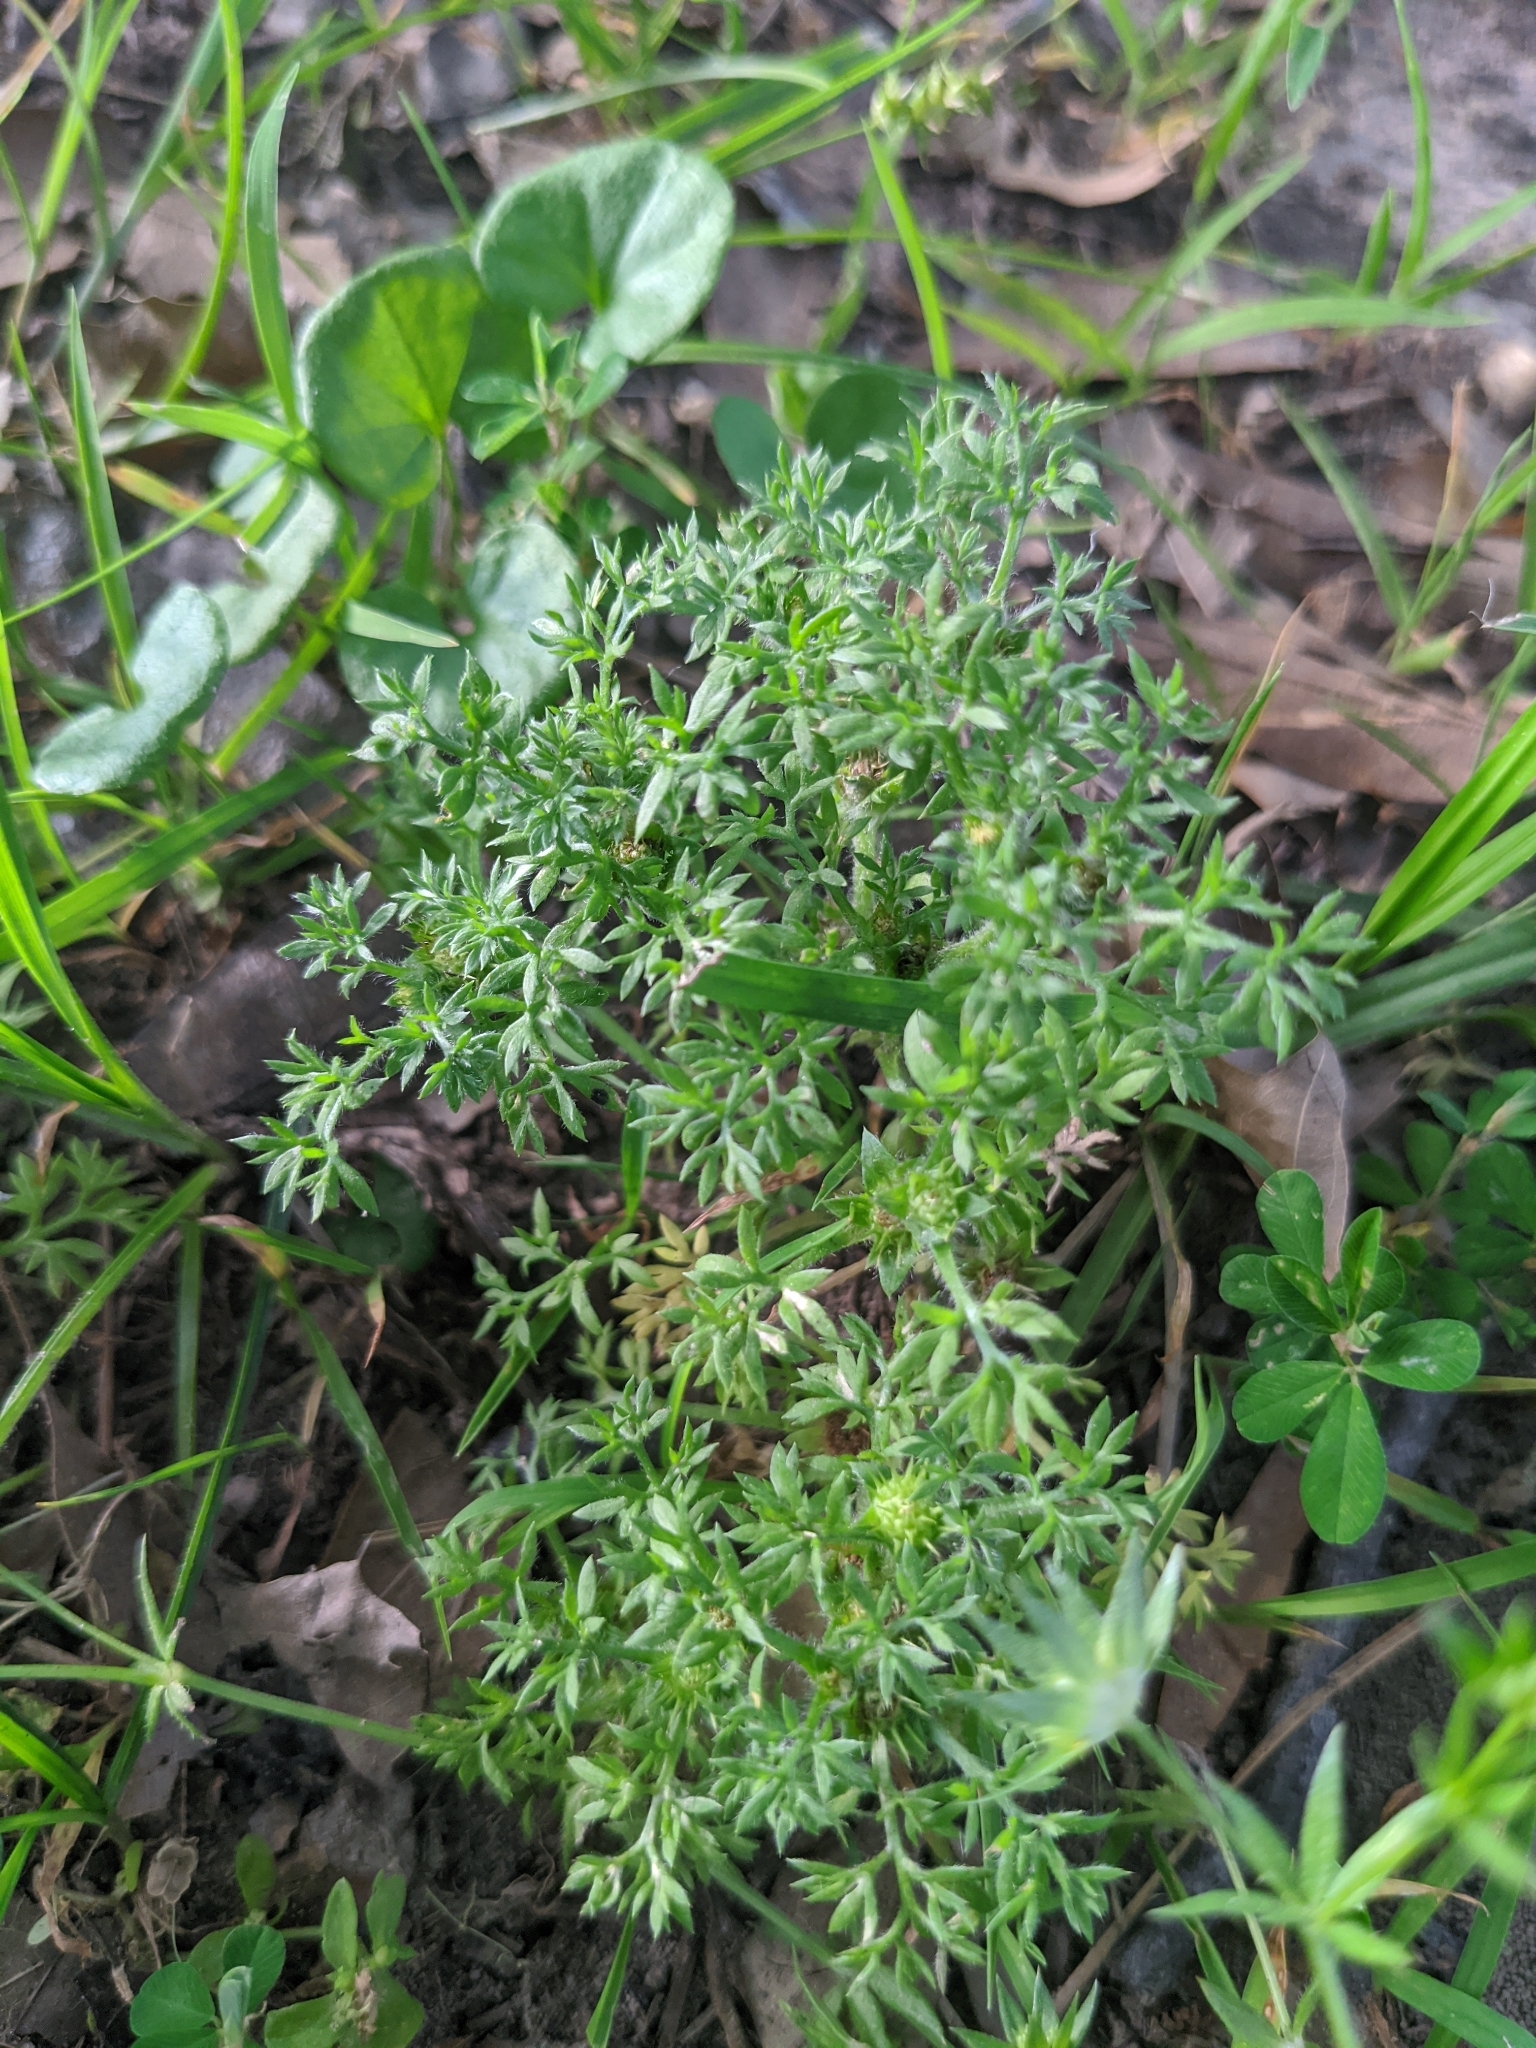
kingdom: Plantae
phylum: Tracheophyta
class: Magnoliopsida
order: Asterales
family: Asteraceae
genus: Soliva
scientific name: Soliva sessilis
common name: Field burrweed
